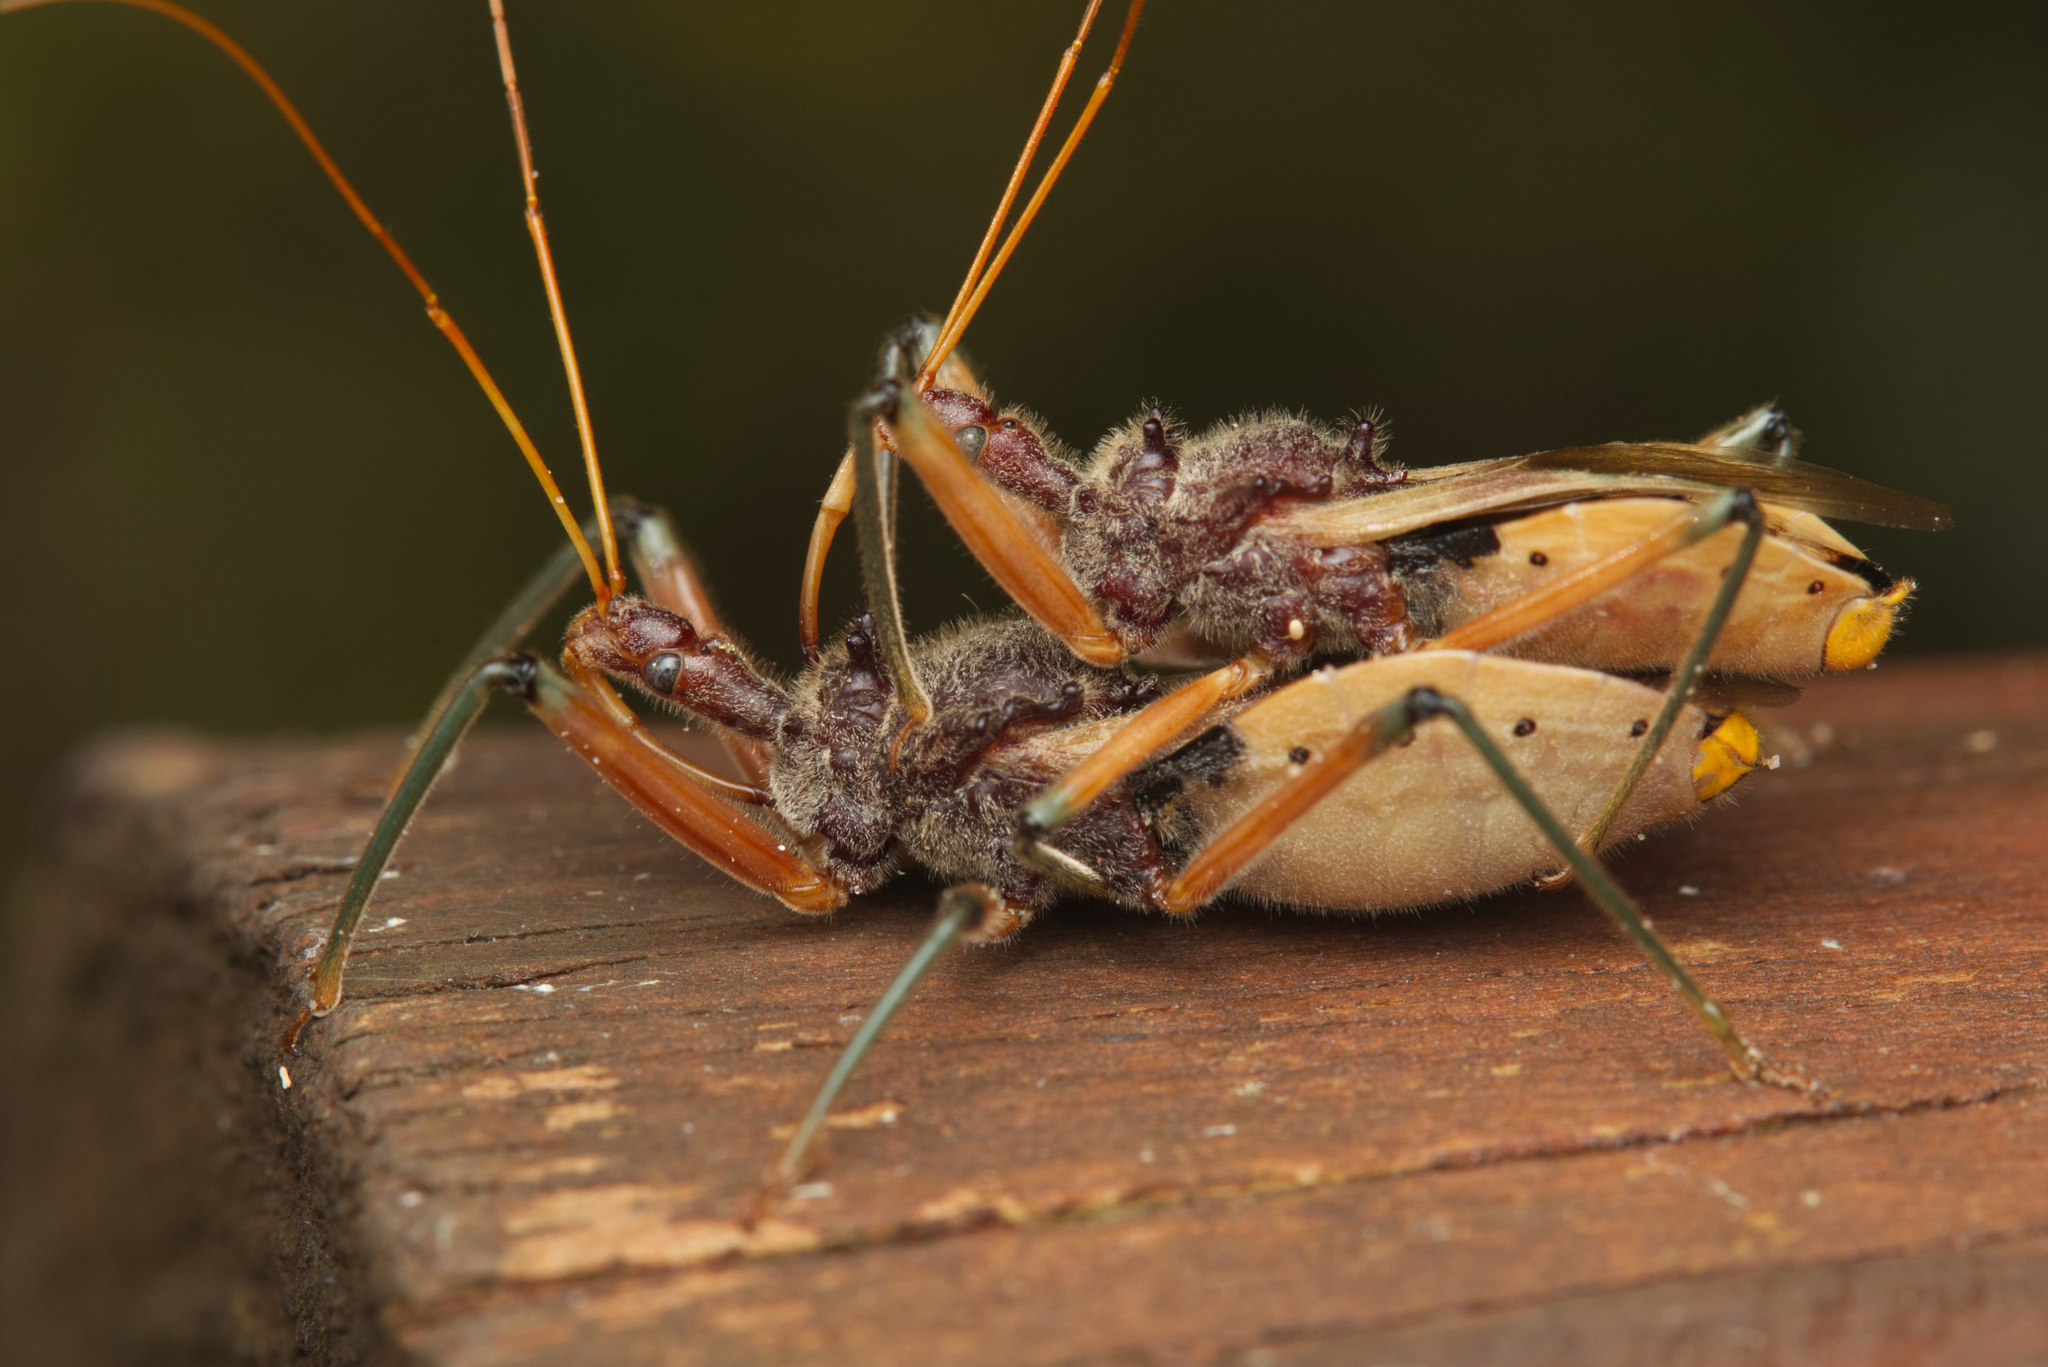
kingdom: Animalia
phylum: Arthropoda
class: Insecta
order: Hemiptera
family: Reduviidae
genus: Pristhesancus
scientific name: Pristhesancus plagipennis
